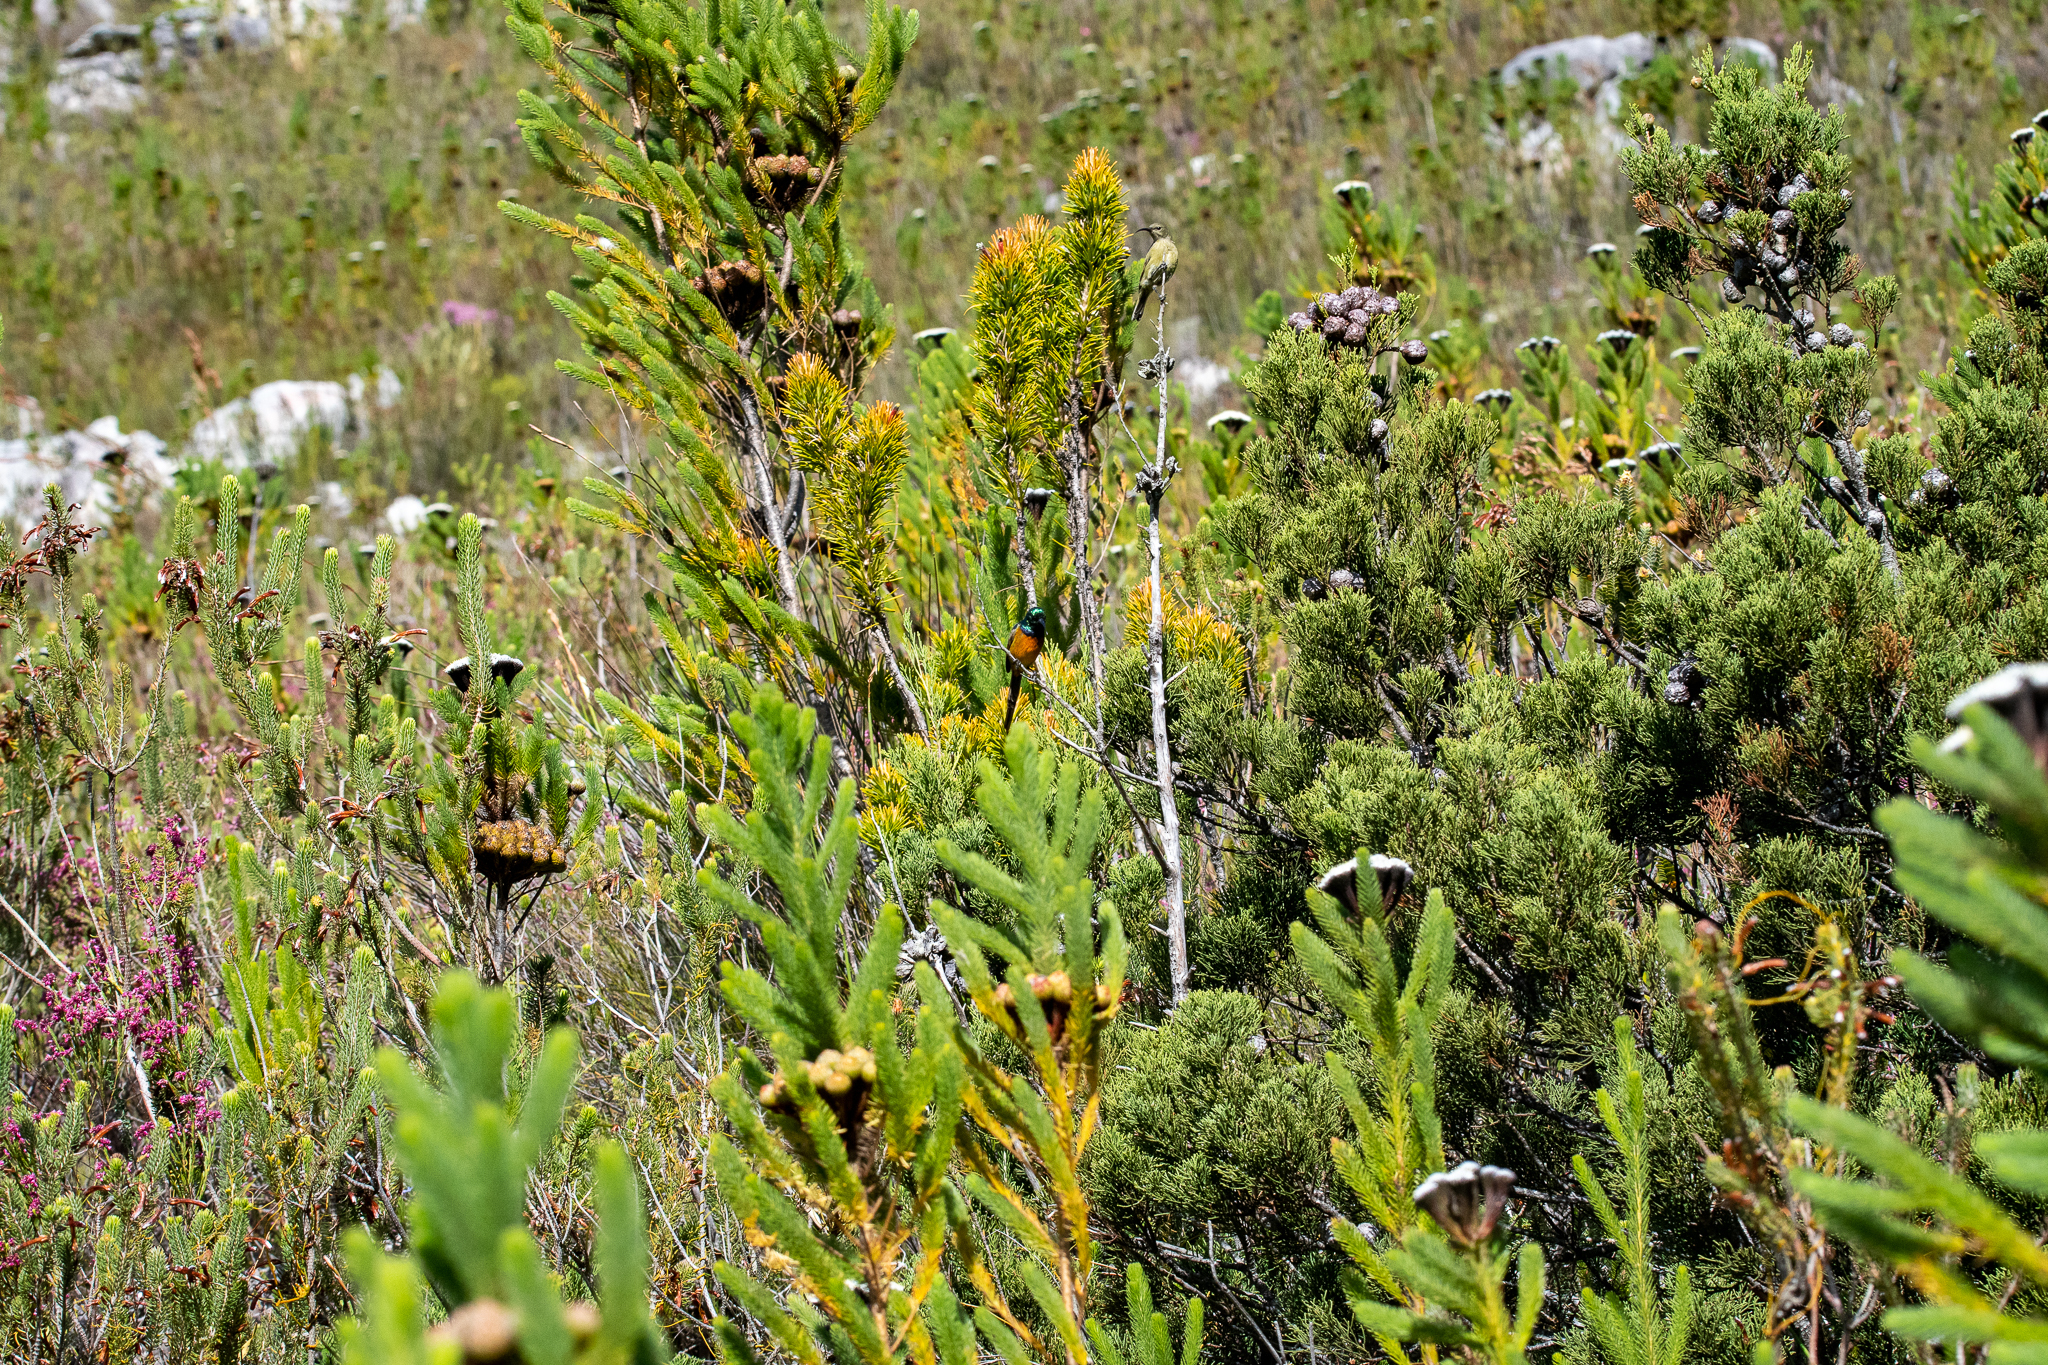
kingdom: Plantae
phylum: Tracheophyta
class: Magnoliopsida
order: Bruniales
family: Bruniaceae
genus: Berzelia
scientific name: Berzelia albiflora
